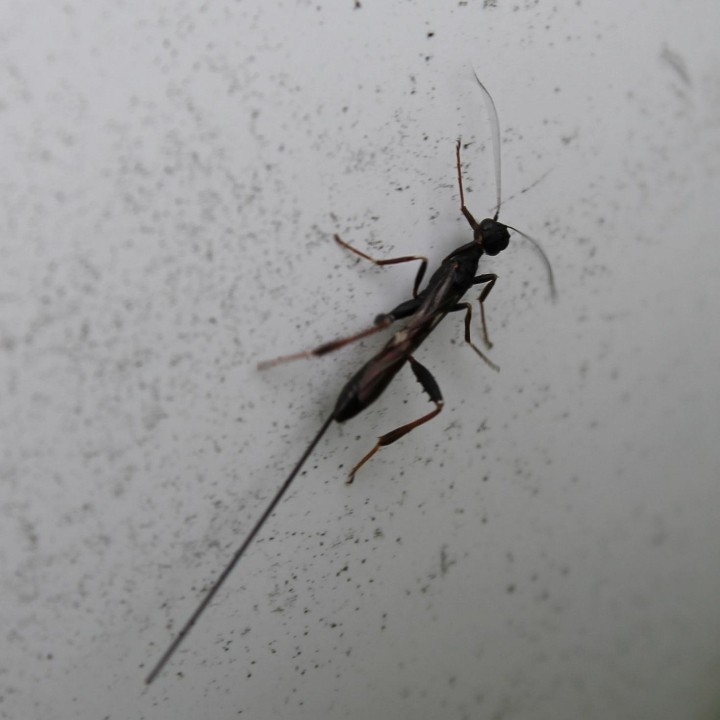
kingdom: Animalia
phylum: Arthropoda
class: Insecta
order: Hymenoptera
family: Stephanidae
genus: Stephanus
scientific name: Stephanus serrator
